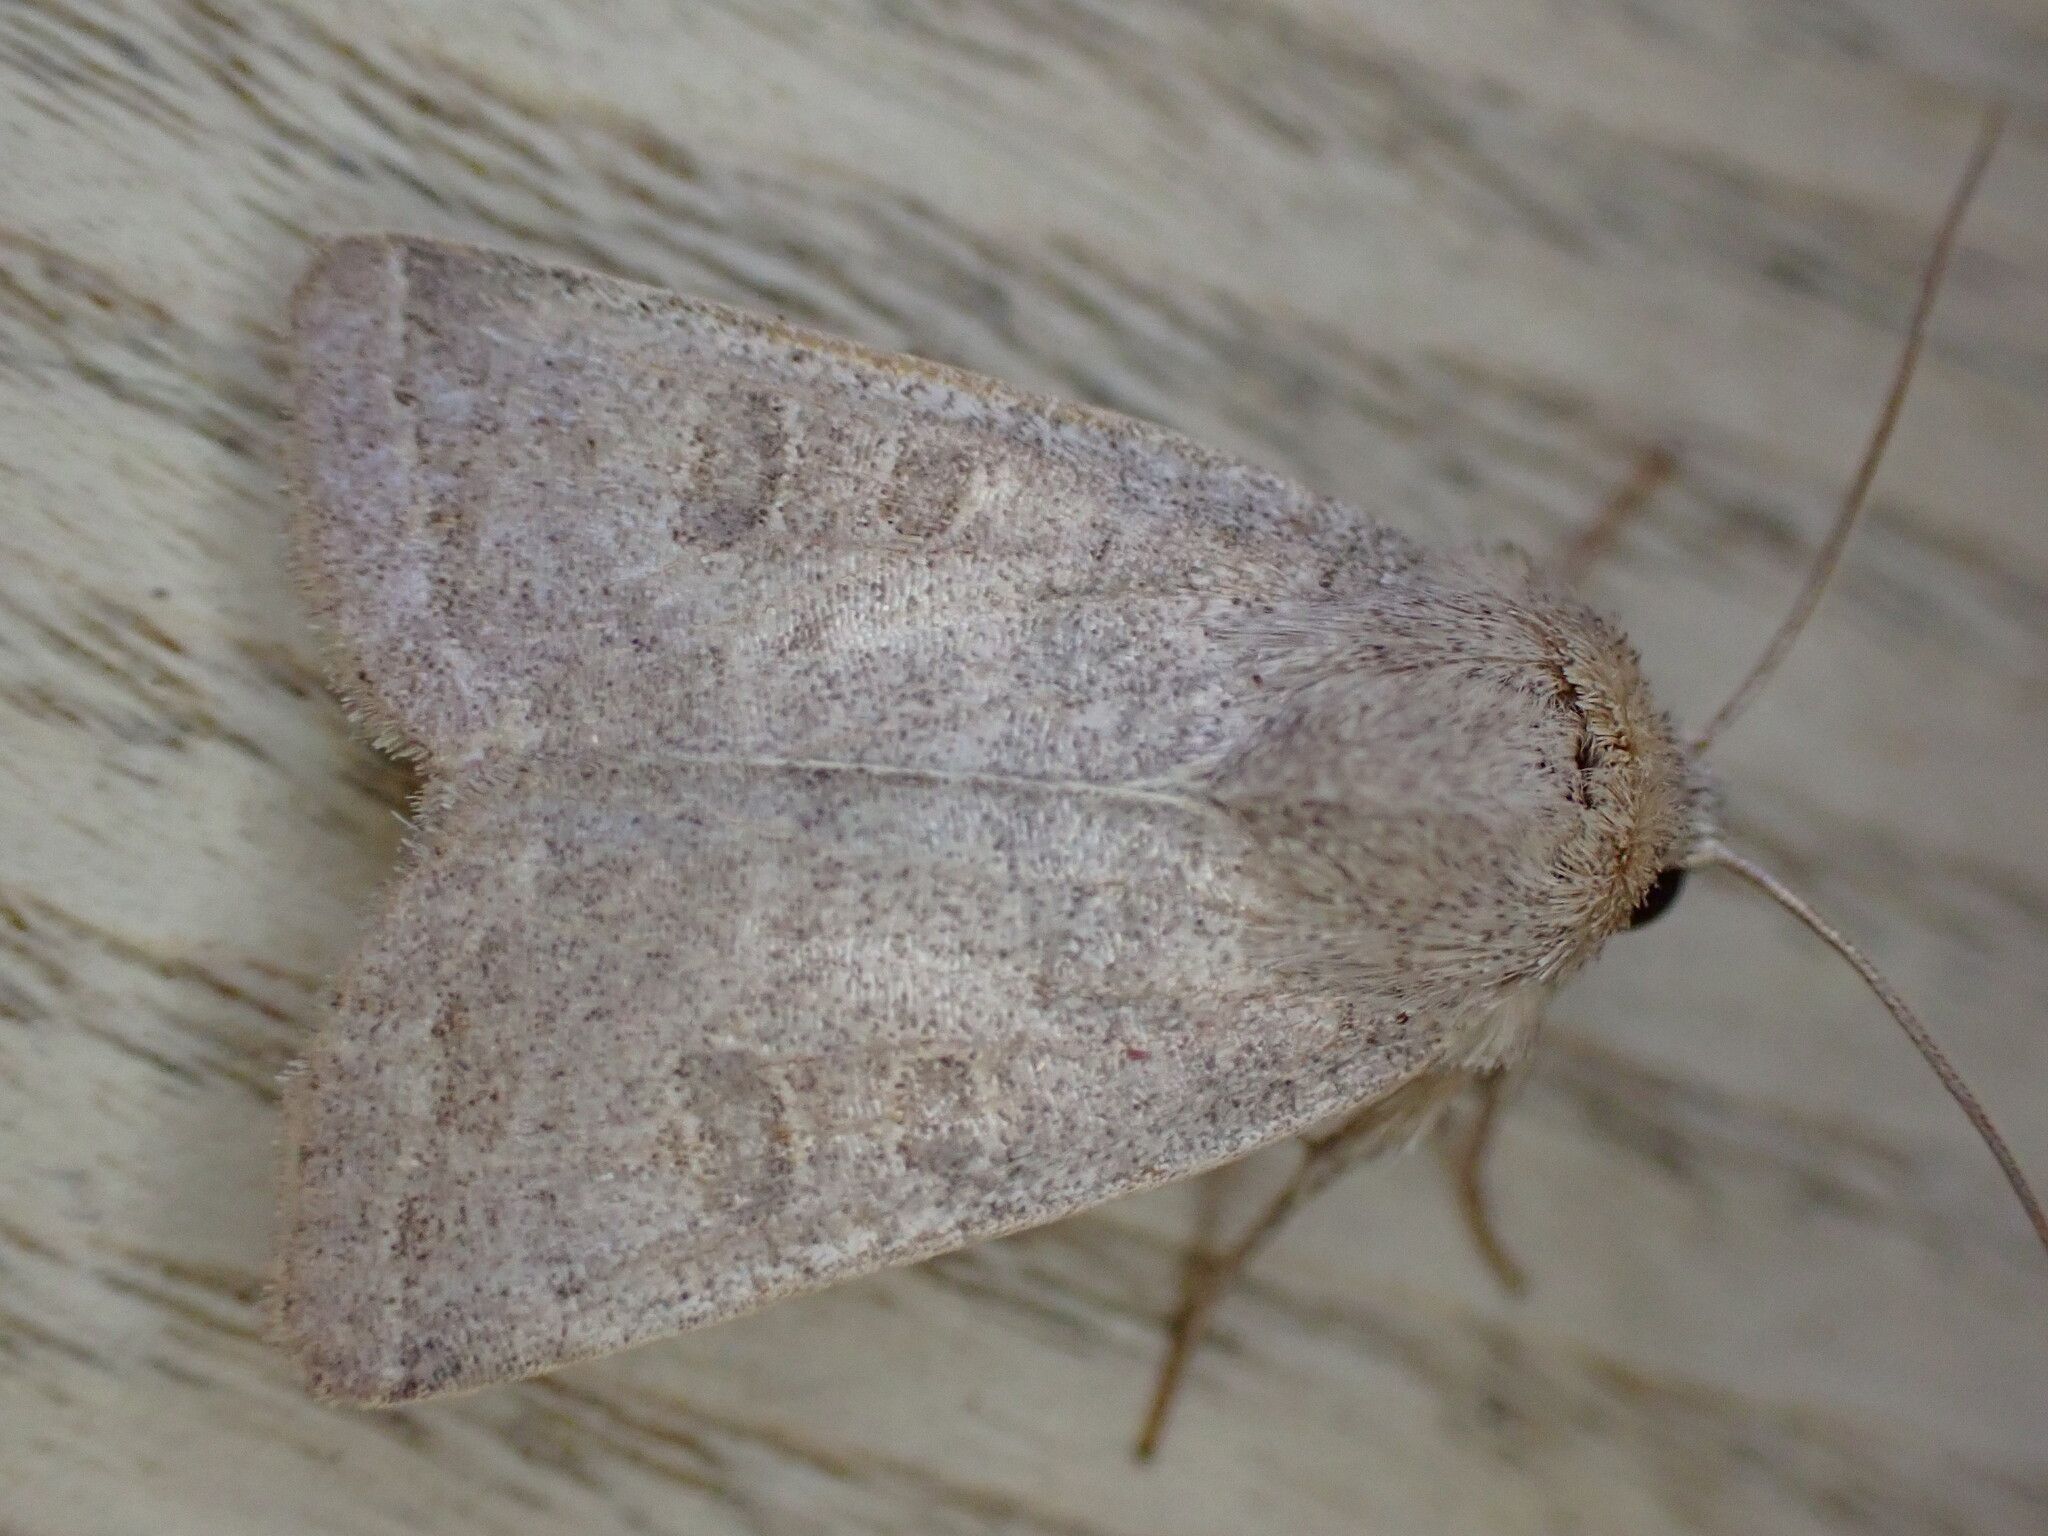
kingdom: Animalia
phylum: Arthropoda
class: Insecta
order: Lepidoptera
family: Noctuidae
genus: Hoplodrina
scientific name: Hoplodrina ambigua
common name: Vine's rustic
